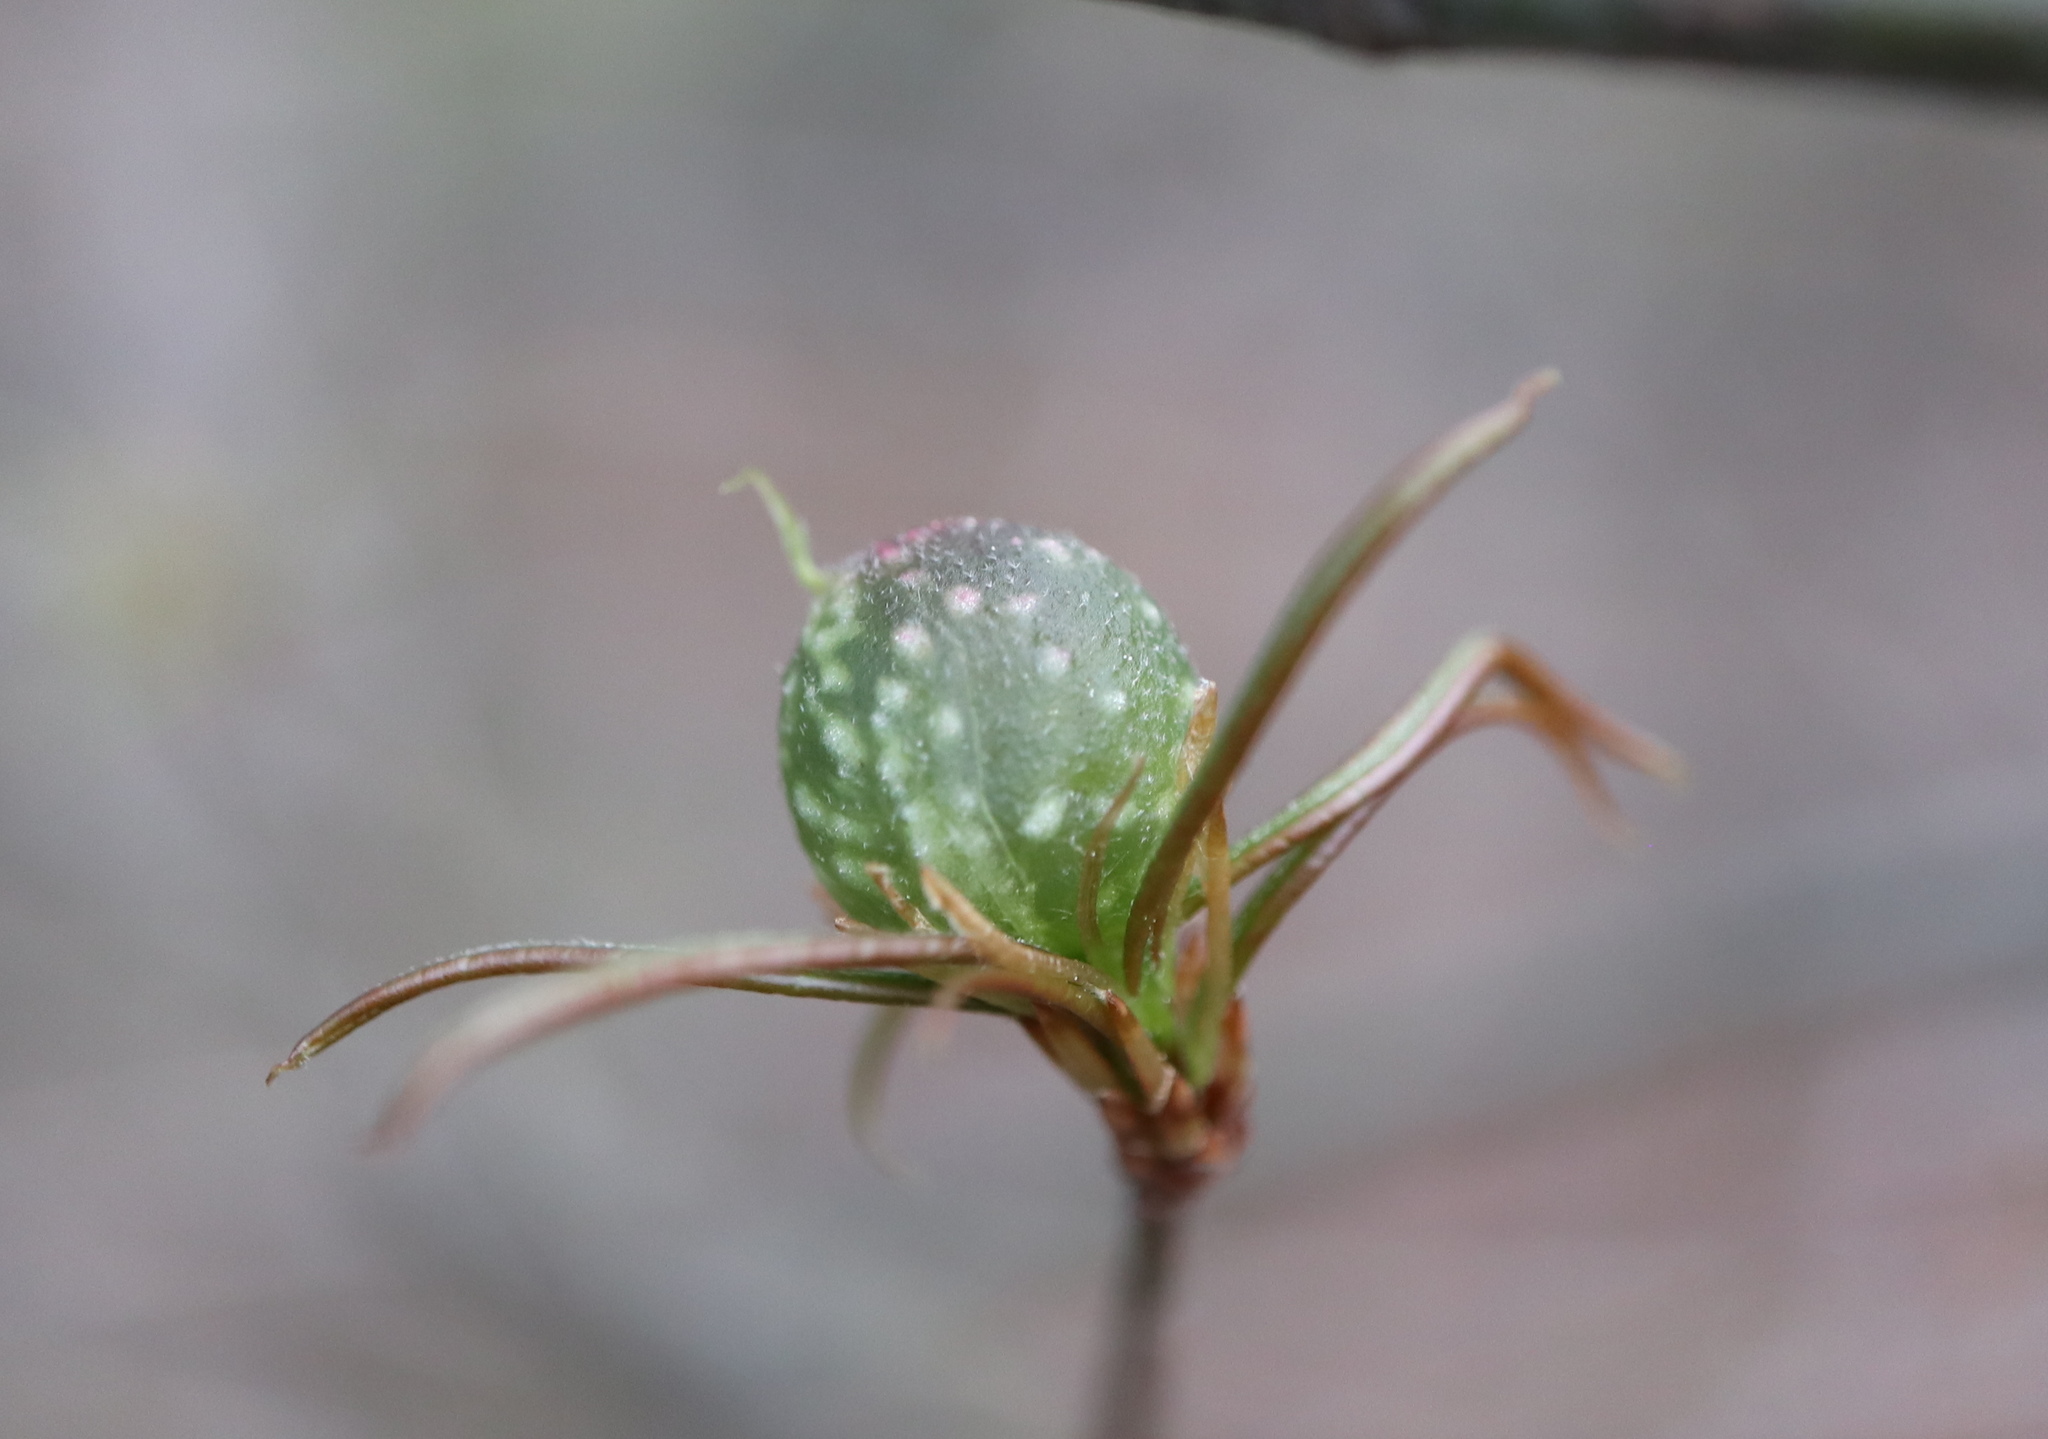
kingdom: Animalia
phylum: Arthropoda
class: Insecta
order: Hymenoptera
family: Cynipidae
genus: Dryocosmus
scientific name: Dryocosmus
